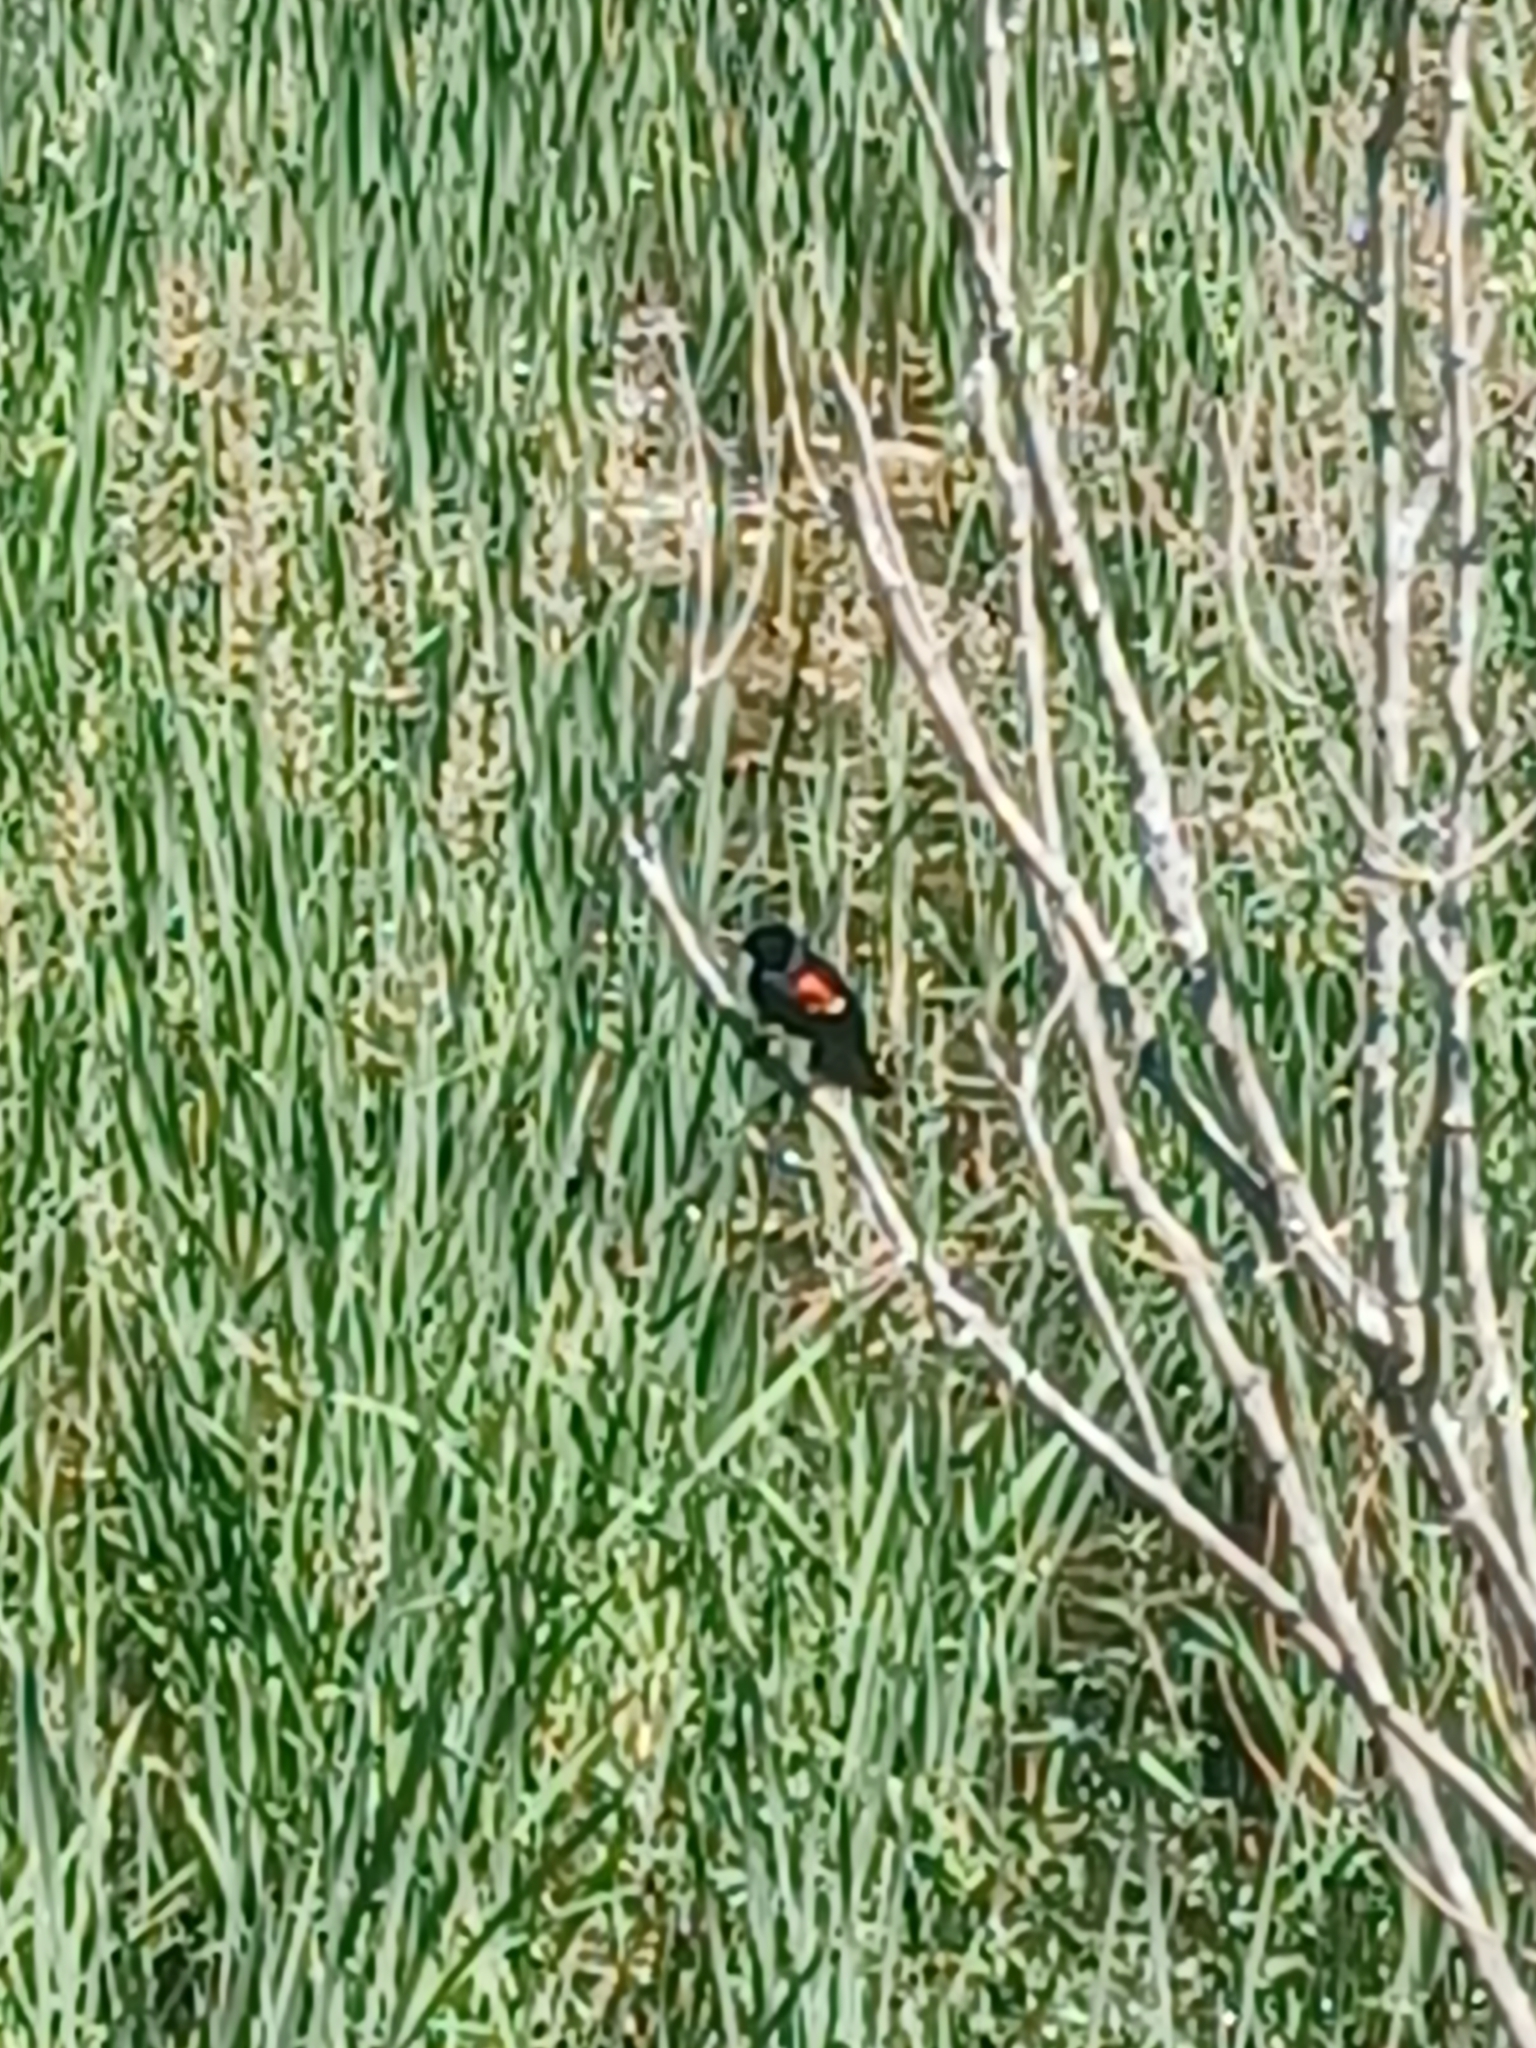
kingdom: Animalia
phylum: Chordata
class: Aves
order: Passeriformes
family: Icteridae
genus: Agelaius
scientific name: Agelaius phoeniceus
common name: Red-winged blackbird
